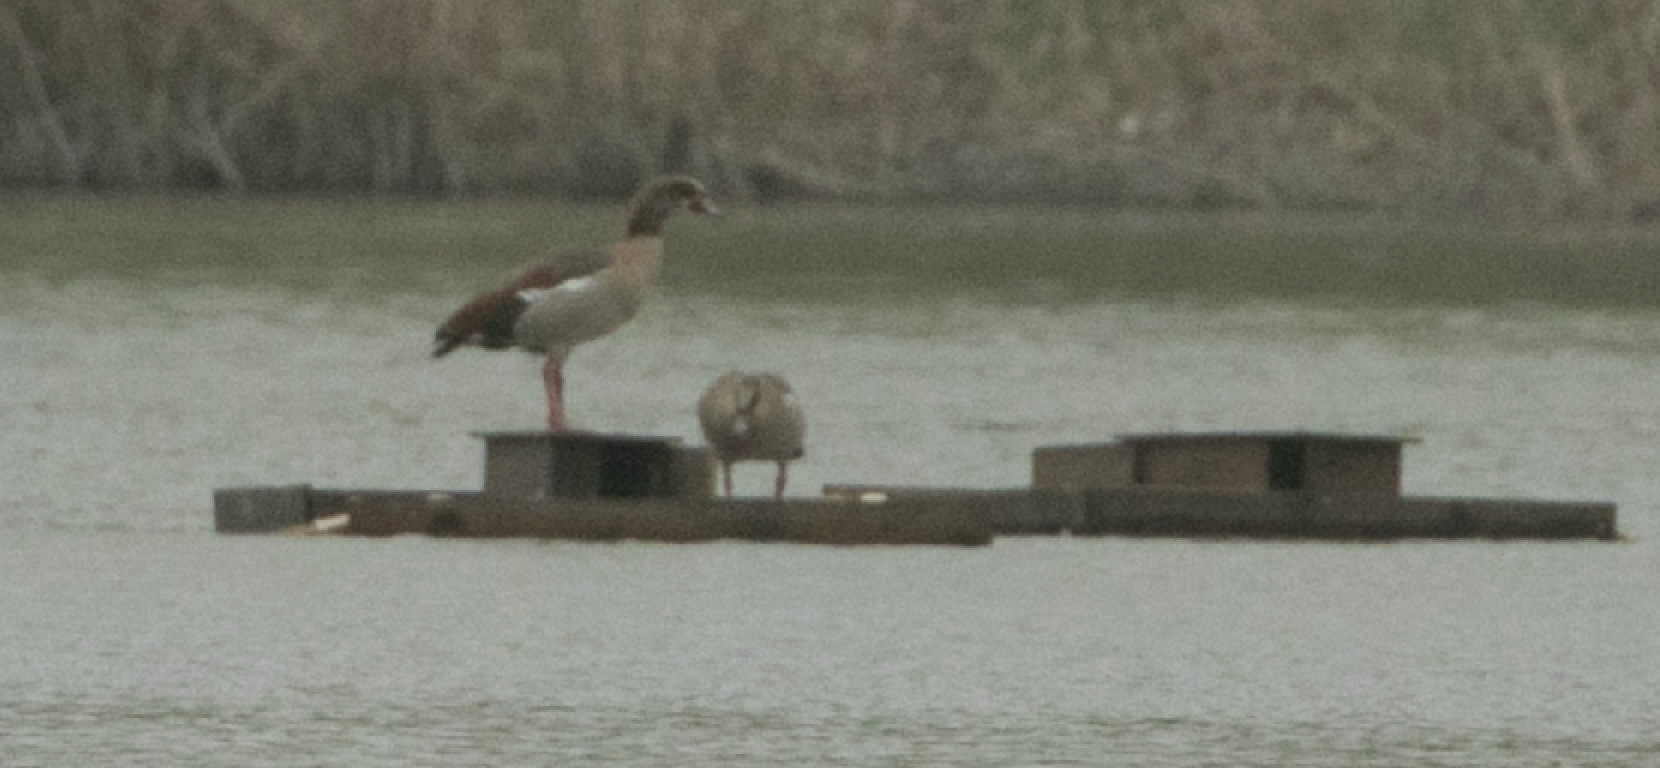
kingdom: Animalia
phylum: Chordata
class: Aves
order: Anseriformes
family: Anatidae
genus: Alopochen
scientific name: Alopochen aegyptiaca
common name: Egyptian goose
